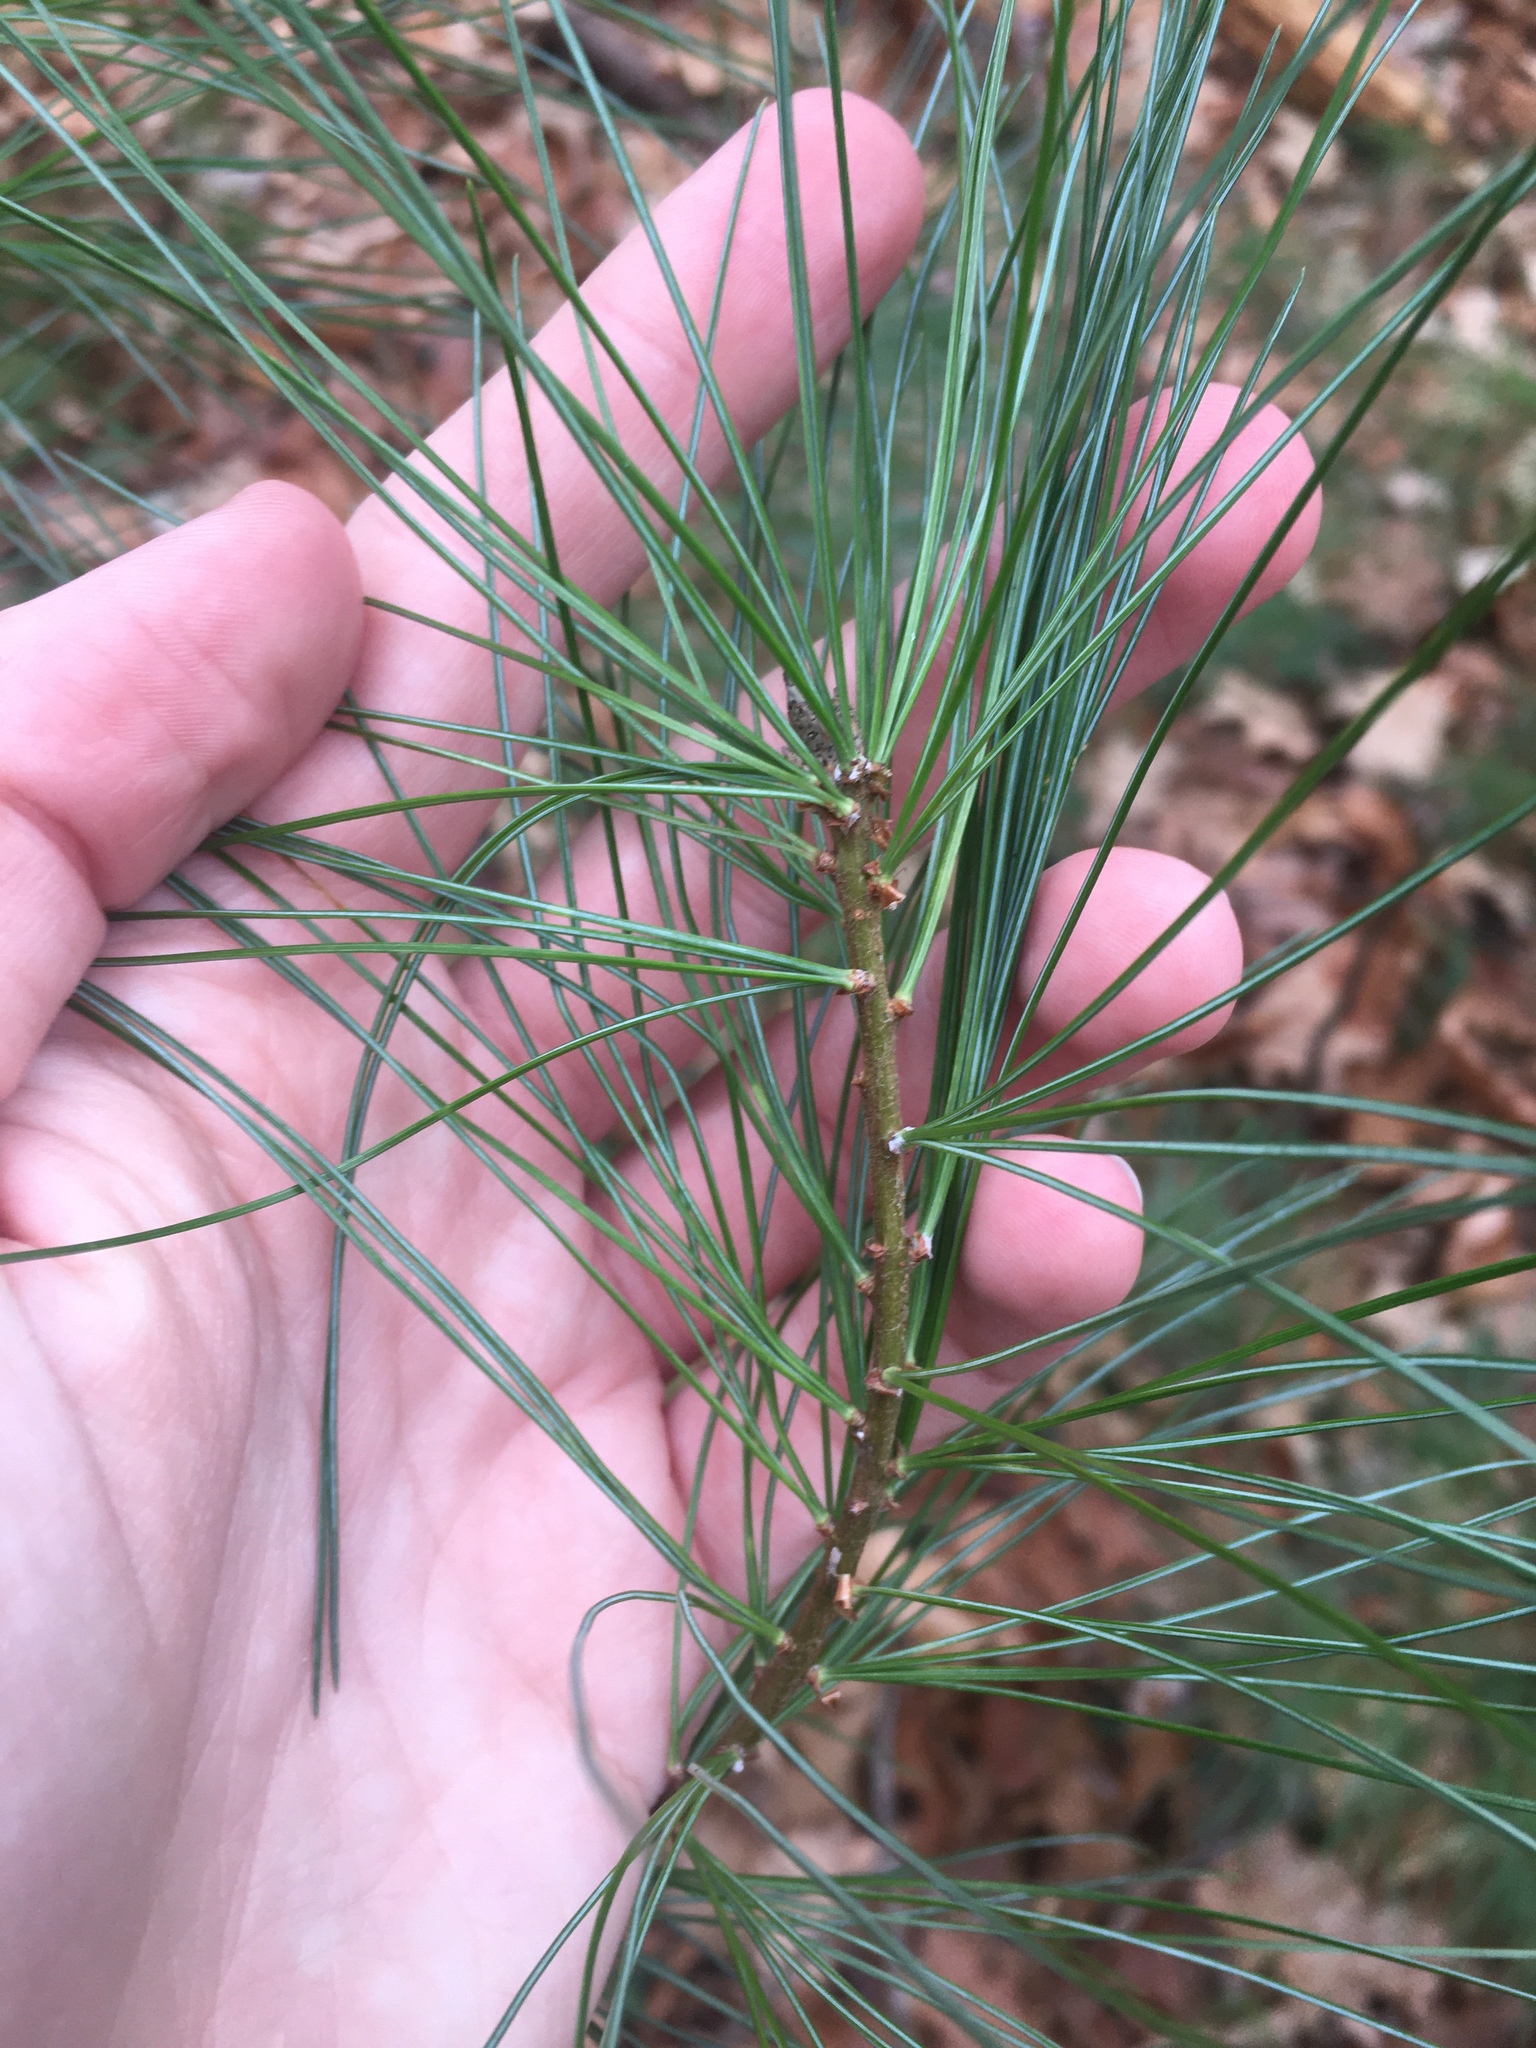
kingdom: Plantae
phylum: Tracheophyta
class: Pinopsida
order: Pinales
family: Pinaceae
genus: Pinus
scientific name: Pinus strobus
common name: Weymouth pine
